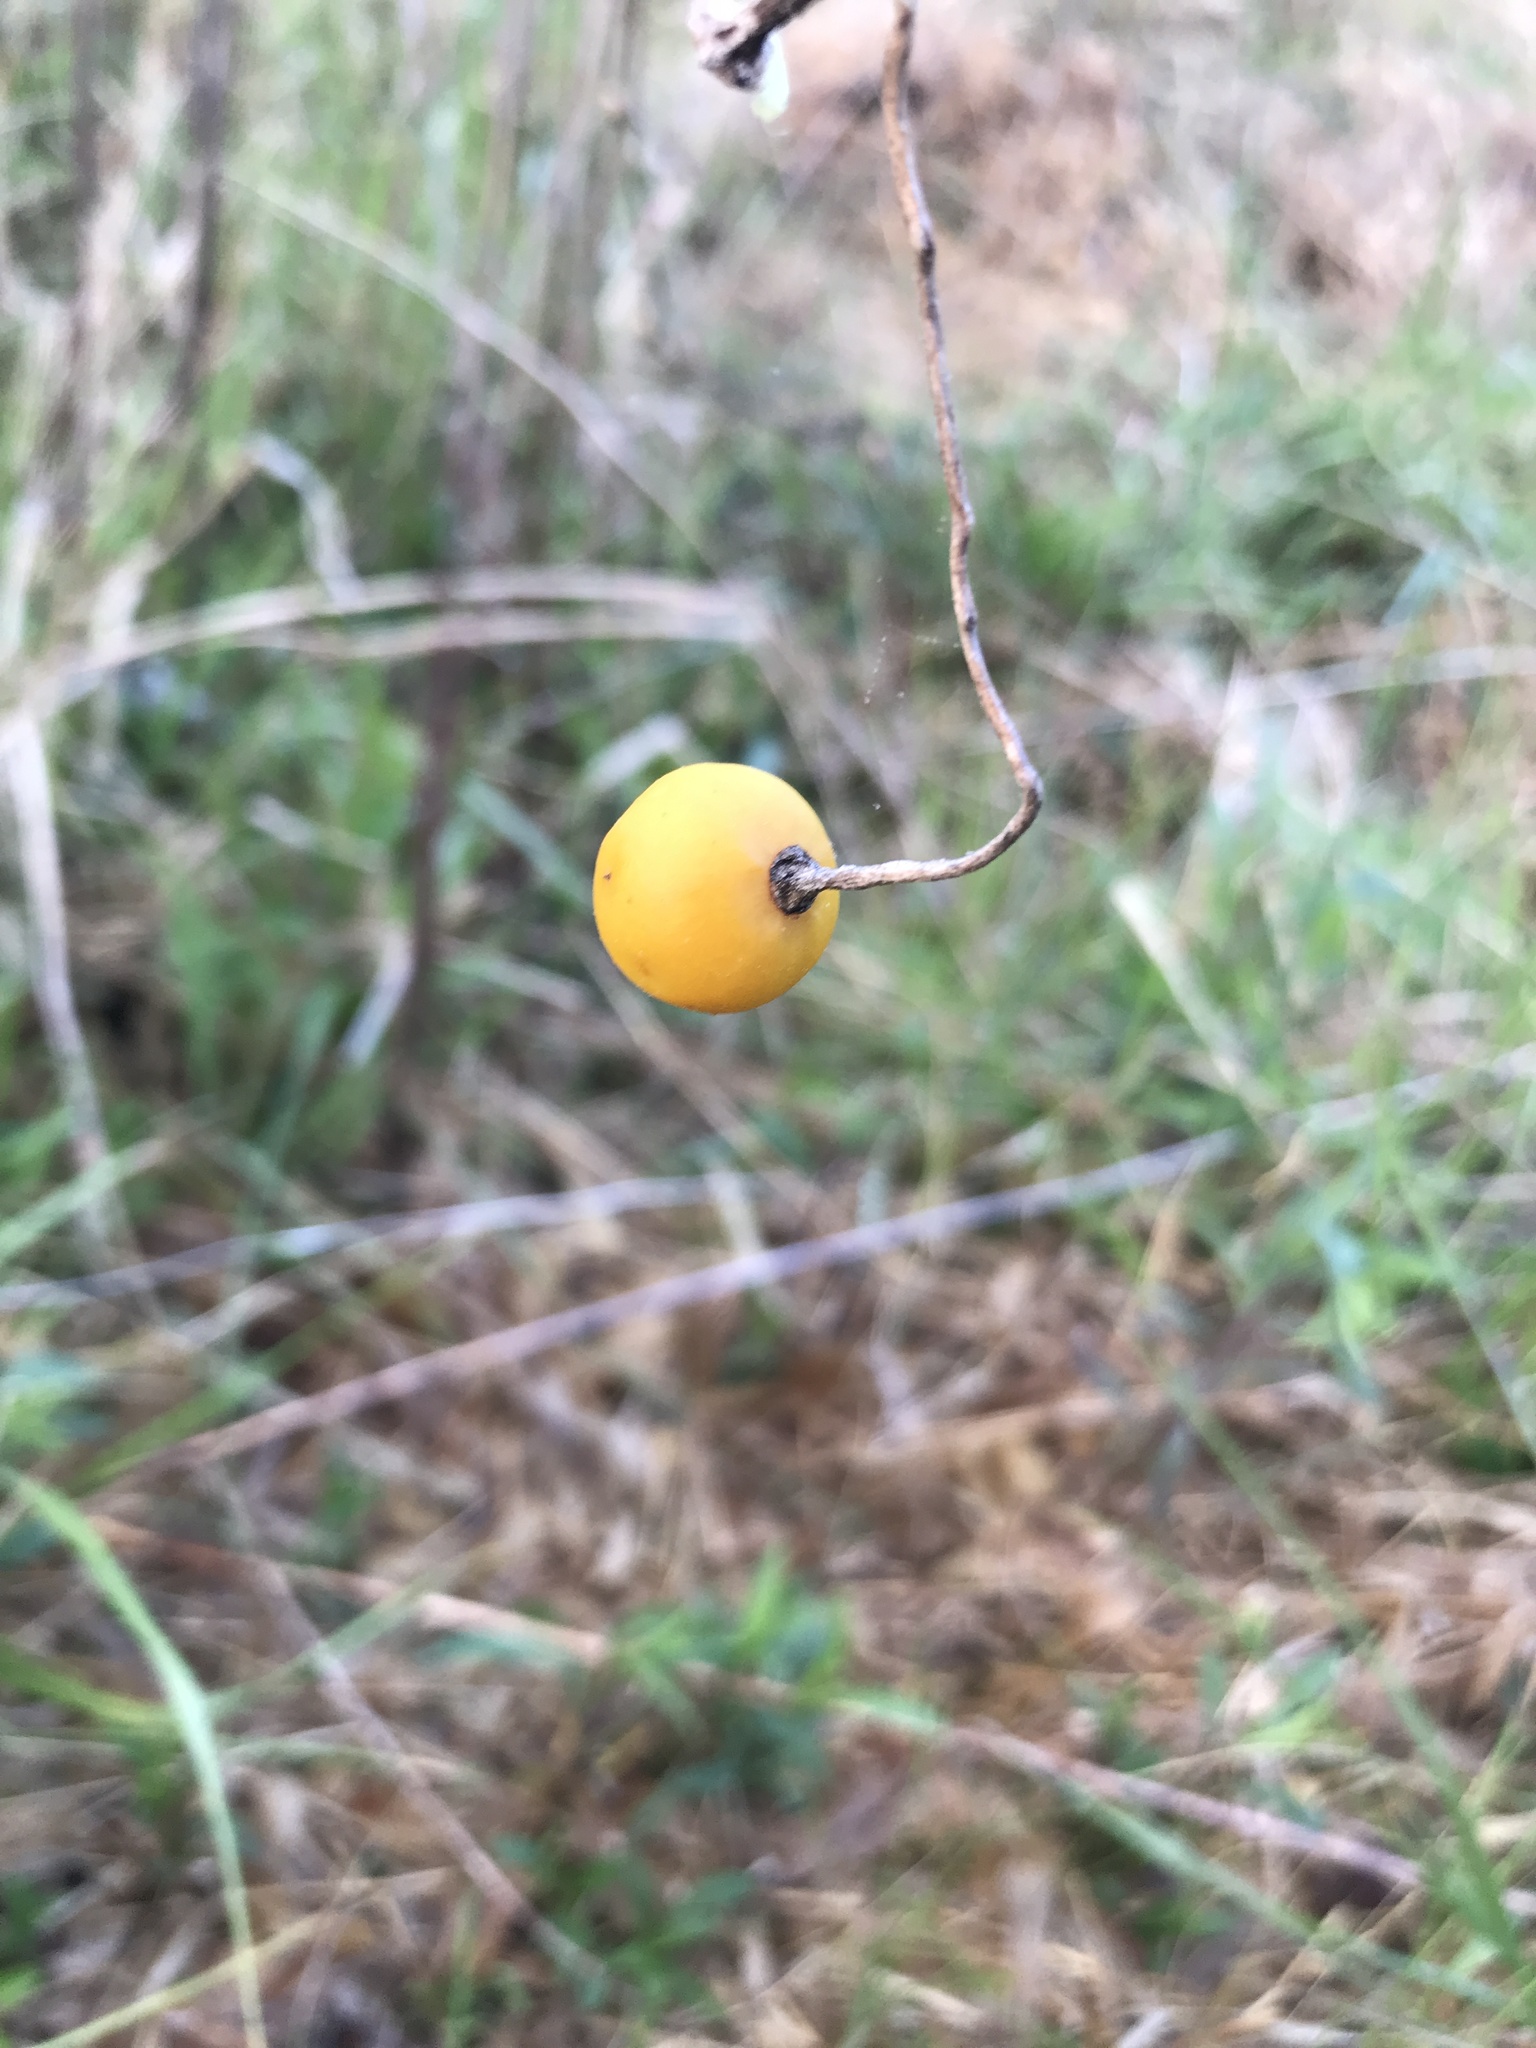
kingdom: Plantae
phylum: Tracheophyta
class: Magnoliopsida
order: Solanales
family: Solanaceae
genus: Solanum
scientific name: Solanum carolinense
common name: Horse-nettle
